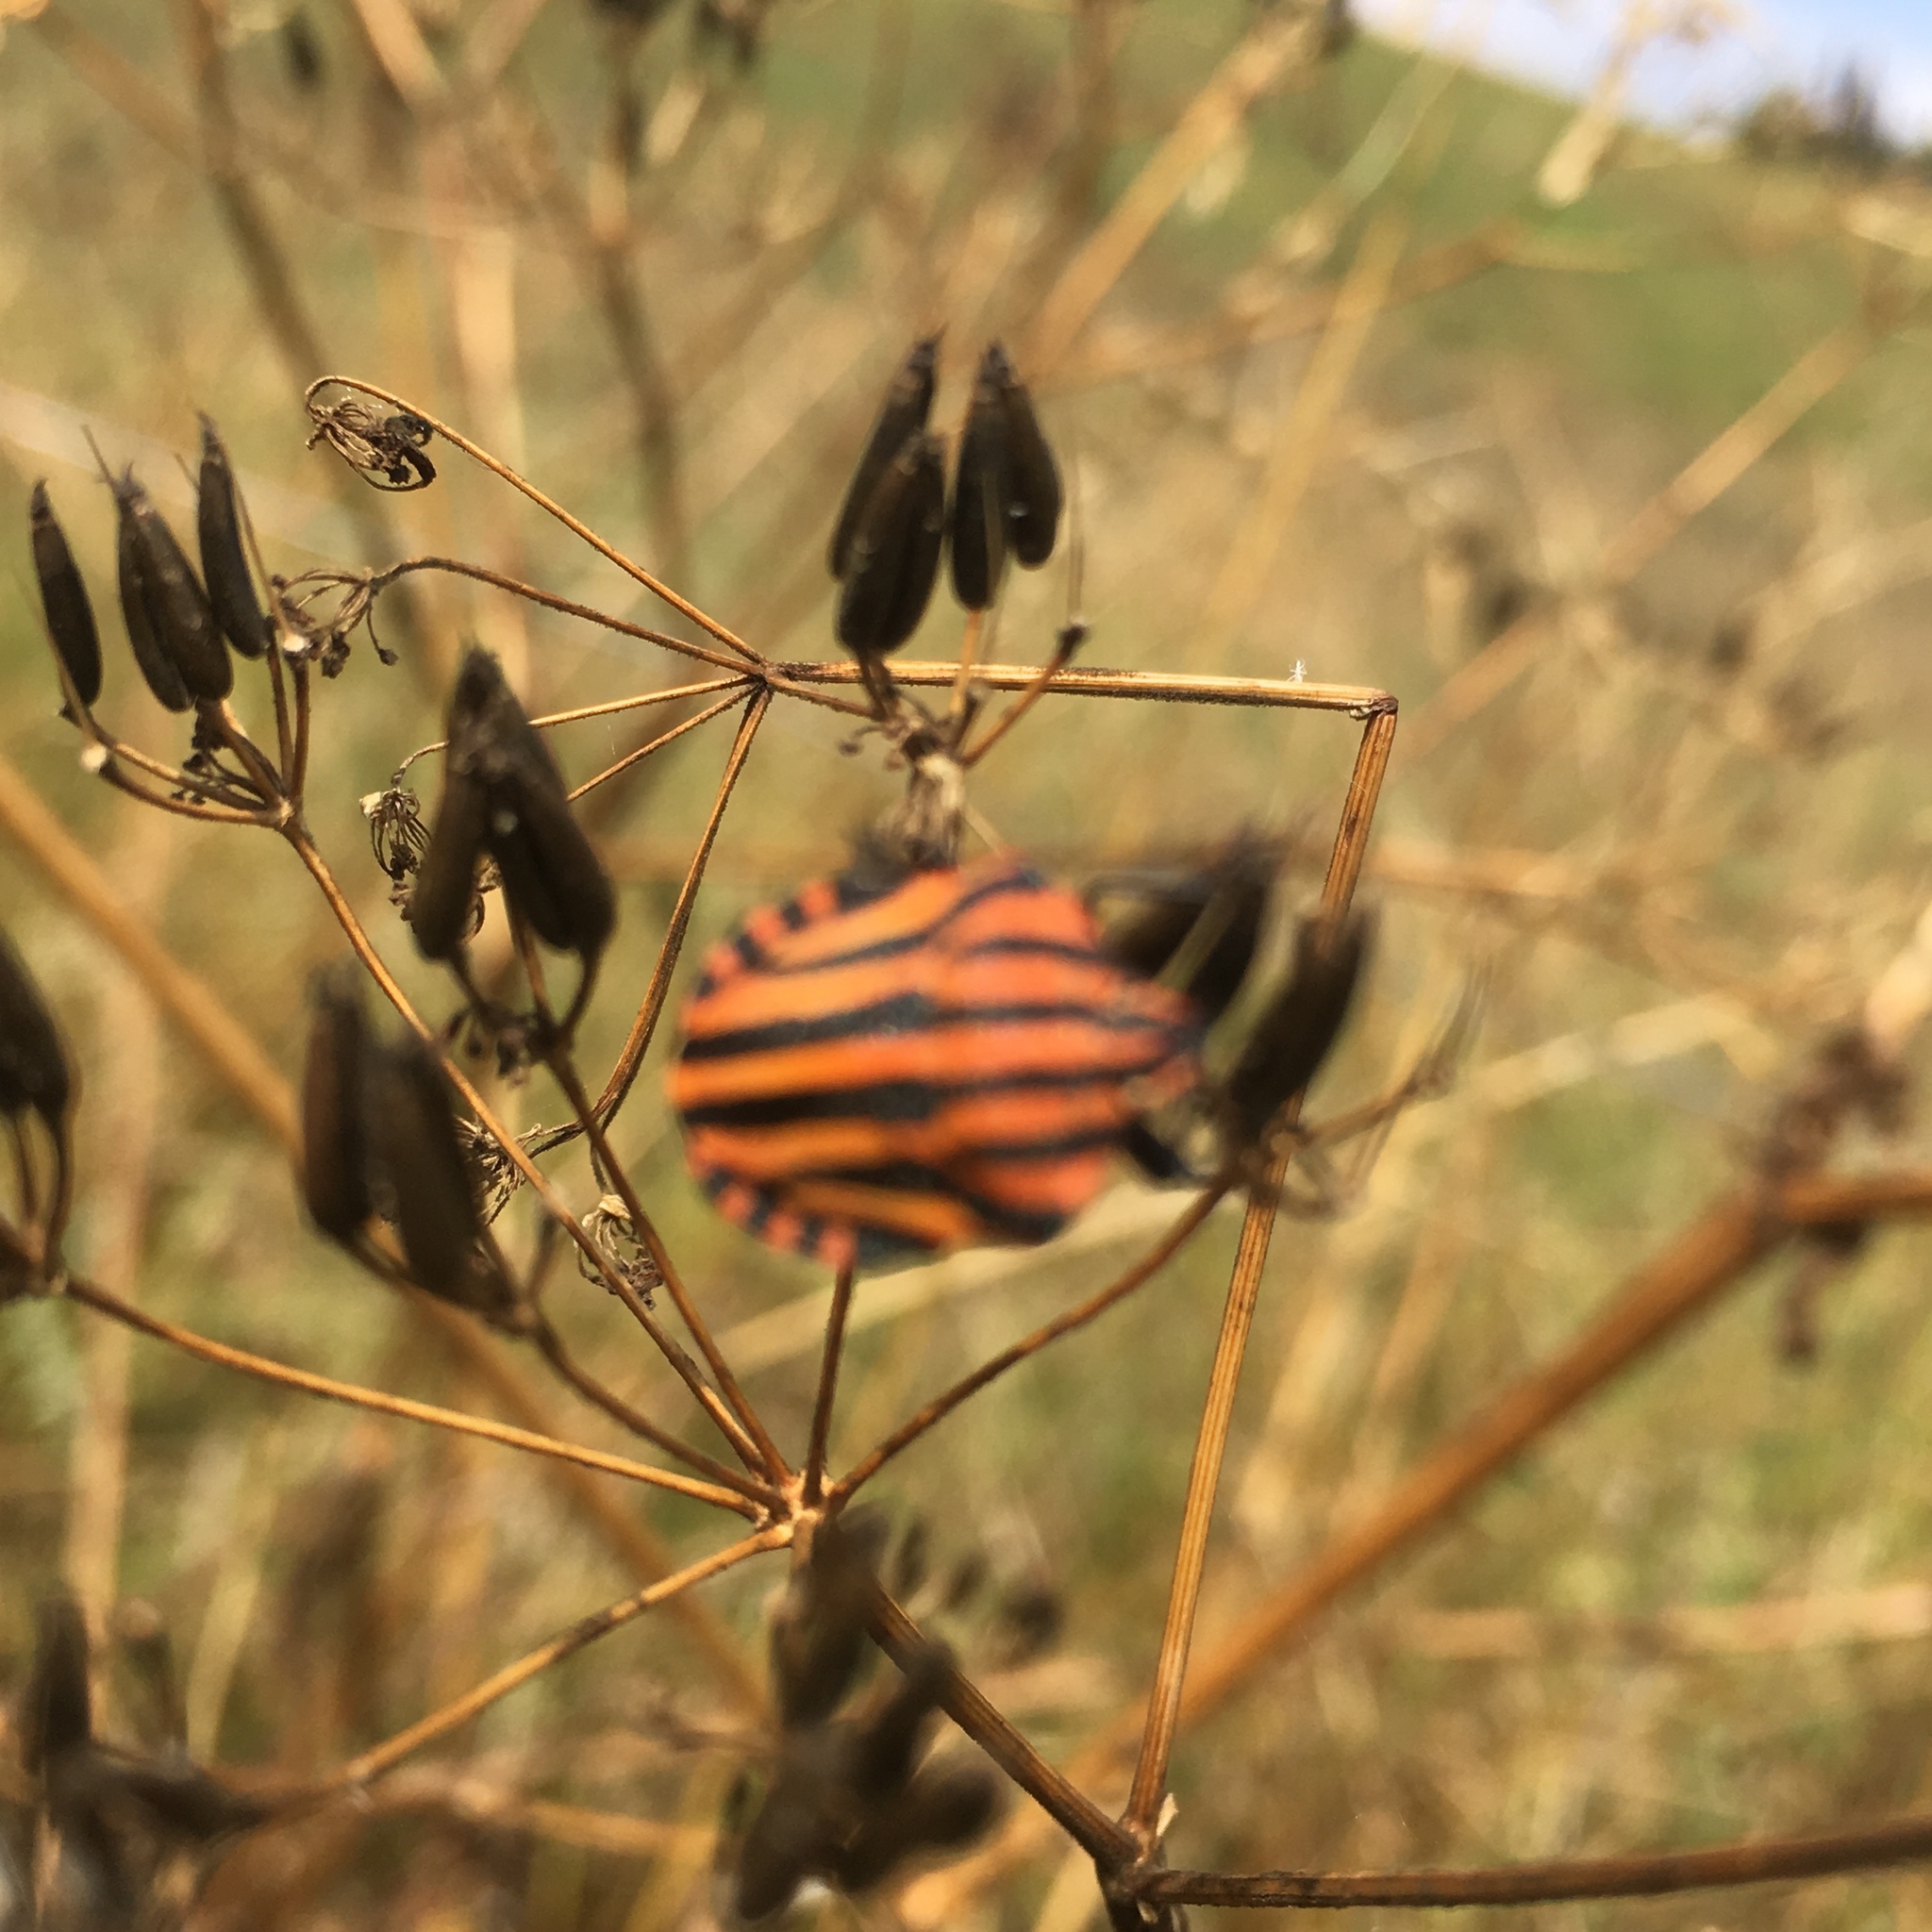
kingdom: Animalia
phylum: Arthropoda
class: Insecta
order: Hemiptera
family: Pentatomidae
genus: Graphosoma
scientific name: Graphosoma italicum
